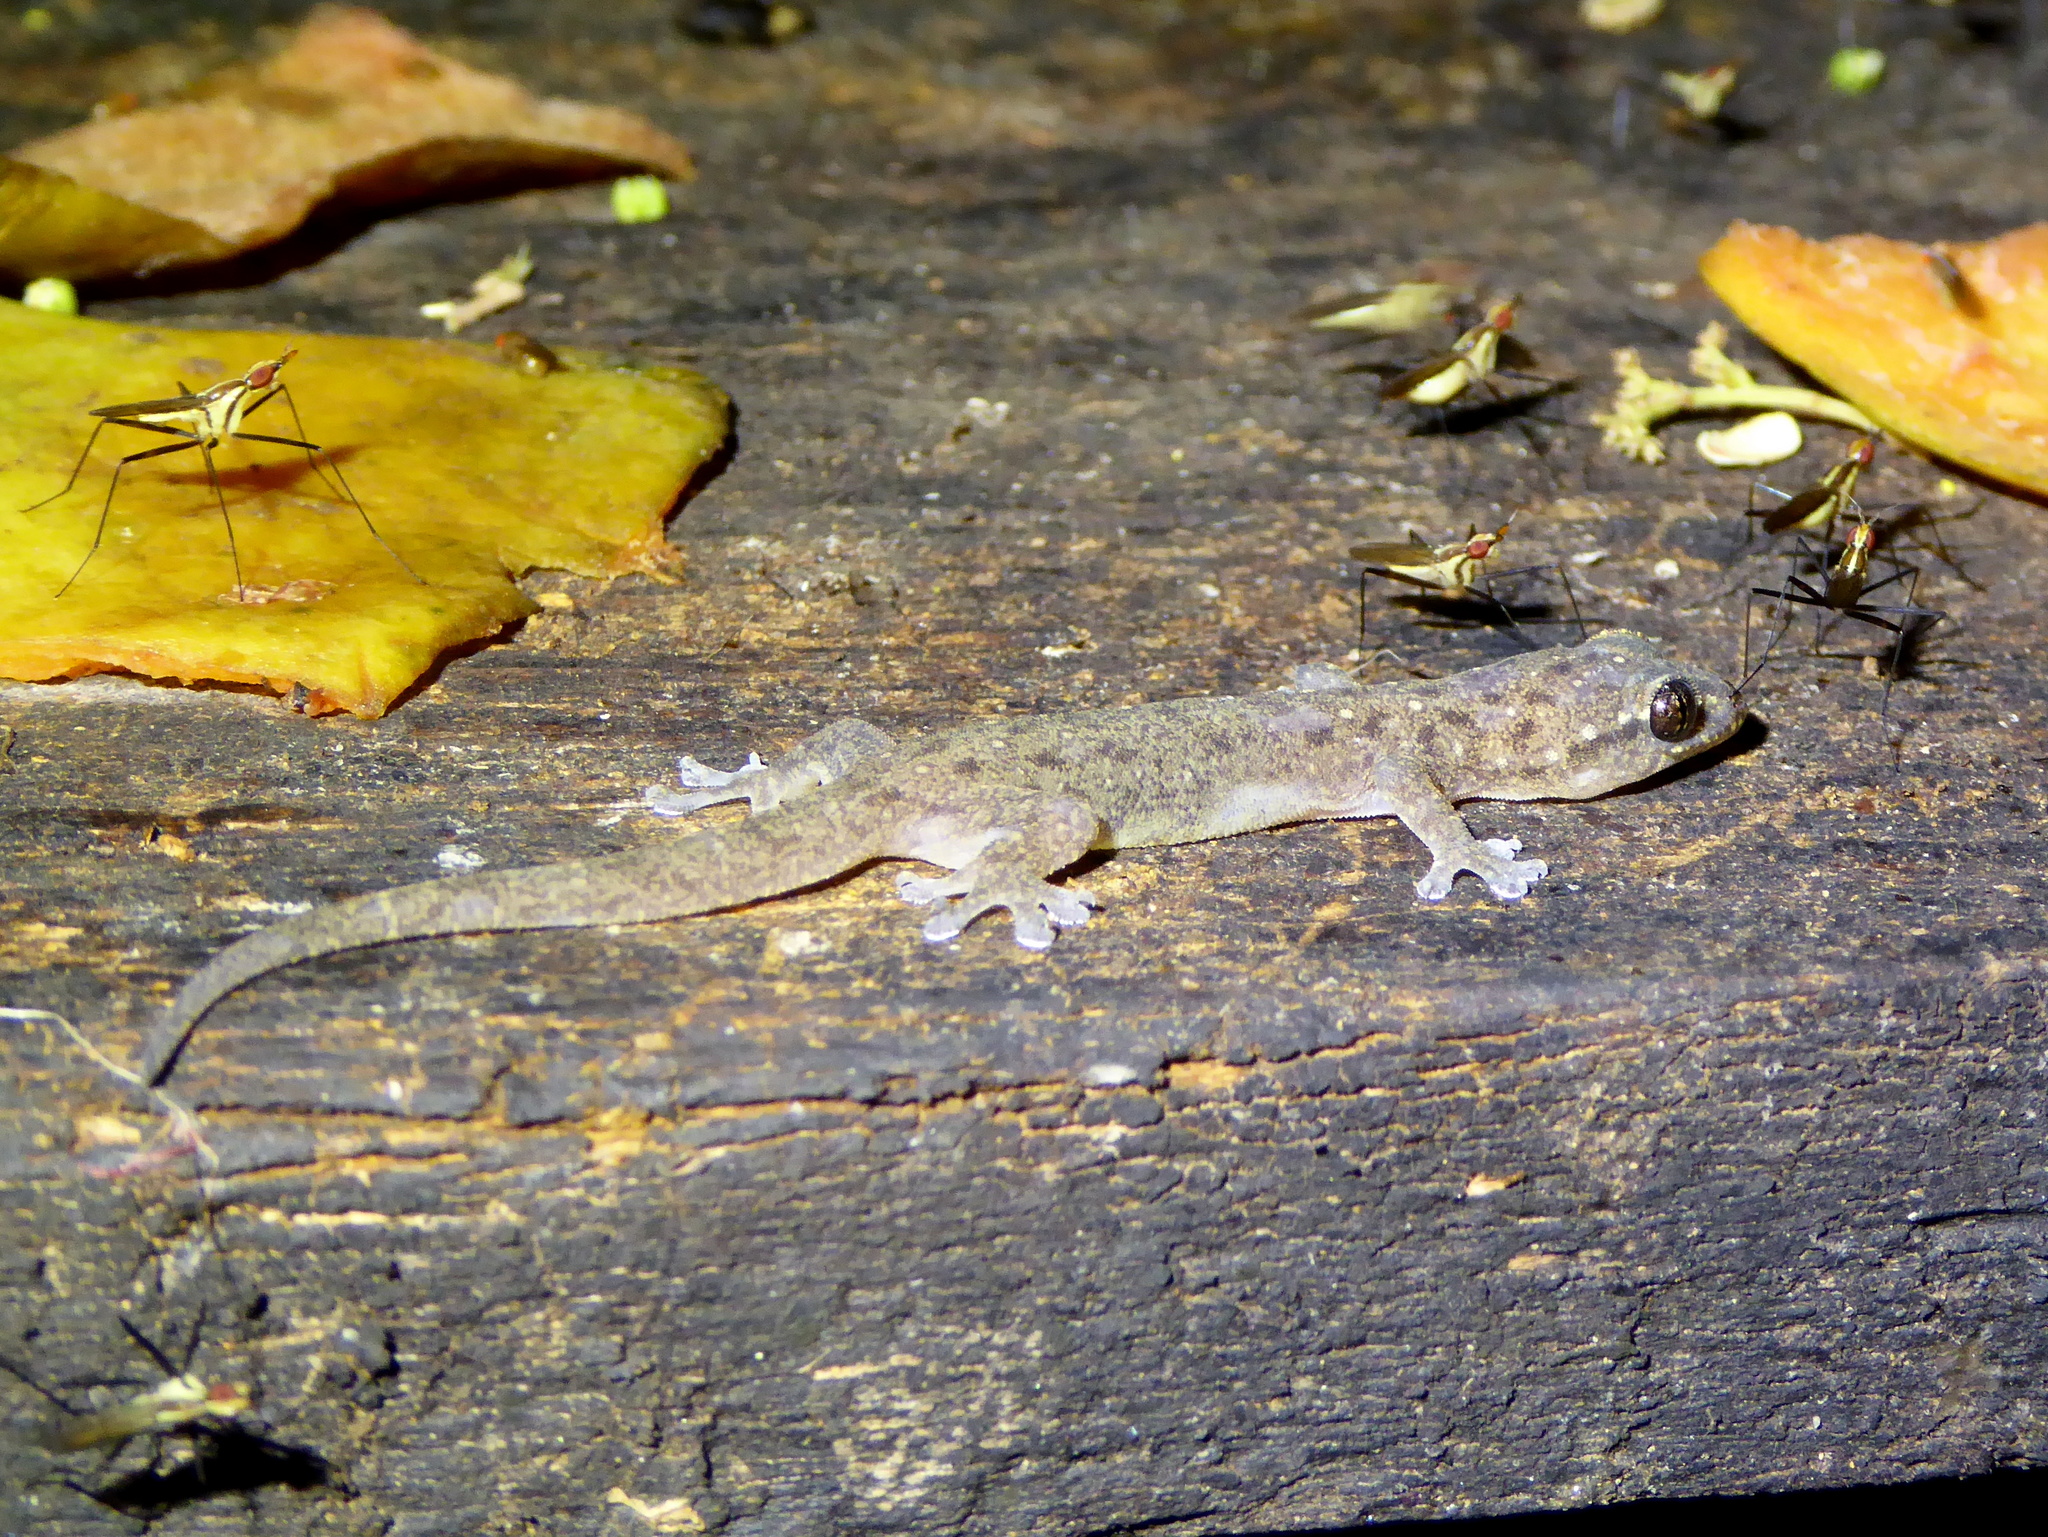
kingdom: Animalia
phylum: Chordata
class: Squamata
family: Gekkonidae
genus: Gehyra
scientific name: Gehyra mutilata
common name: Stump-toed gecko
